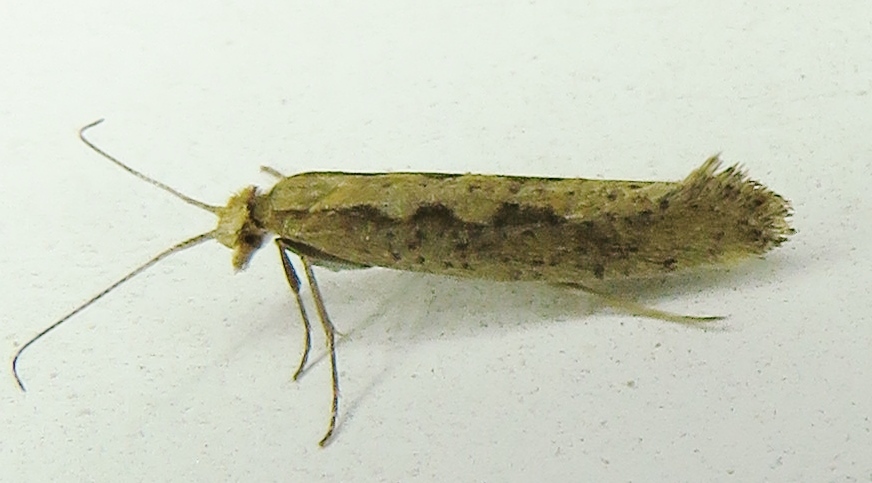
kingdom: Animalia
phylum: Arthropoda
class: Insecta
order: Lepidoptera
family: Plutellidae
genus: Plutella
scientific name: Plutella xylostella
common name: Diamond-back moth
